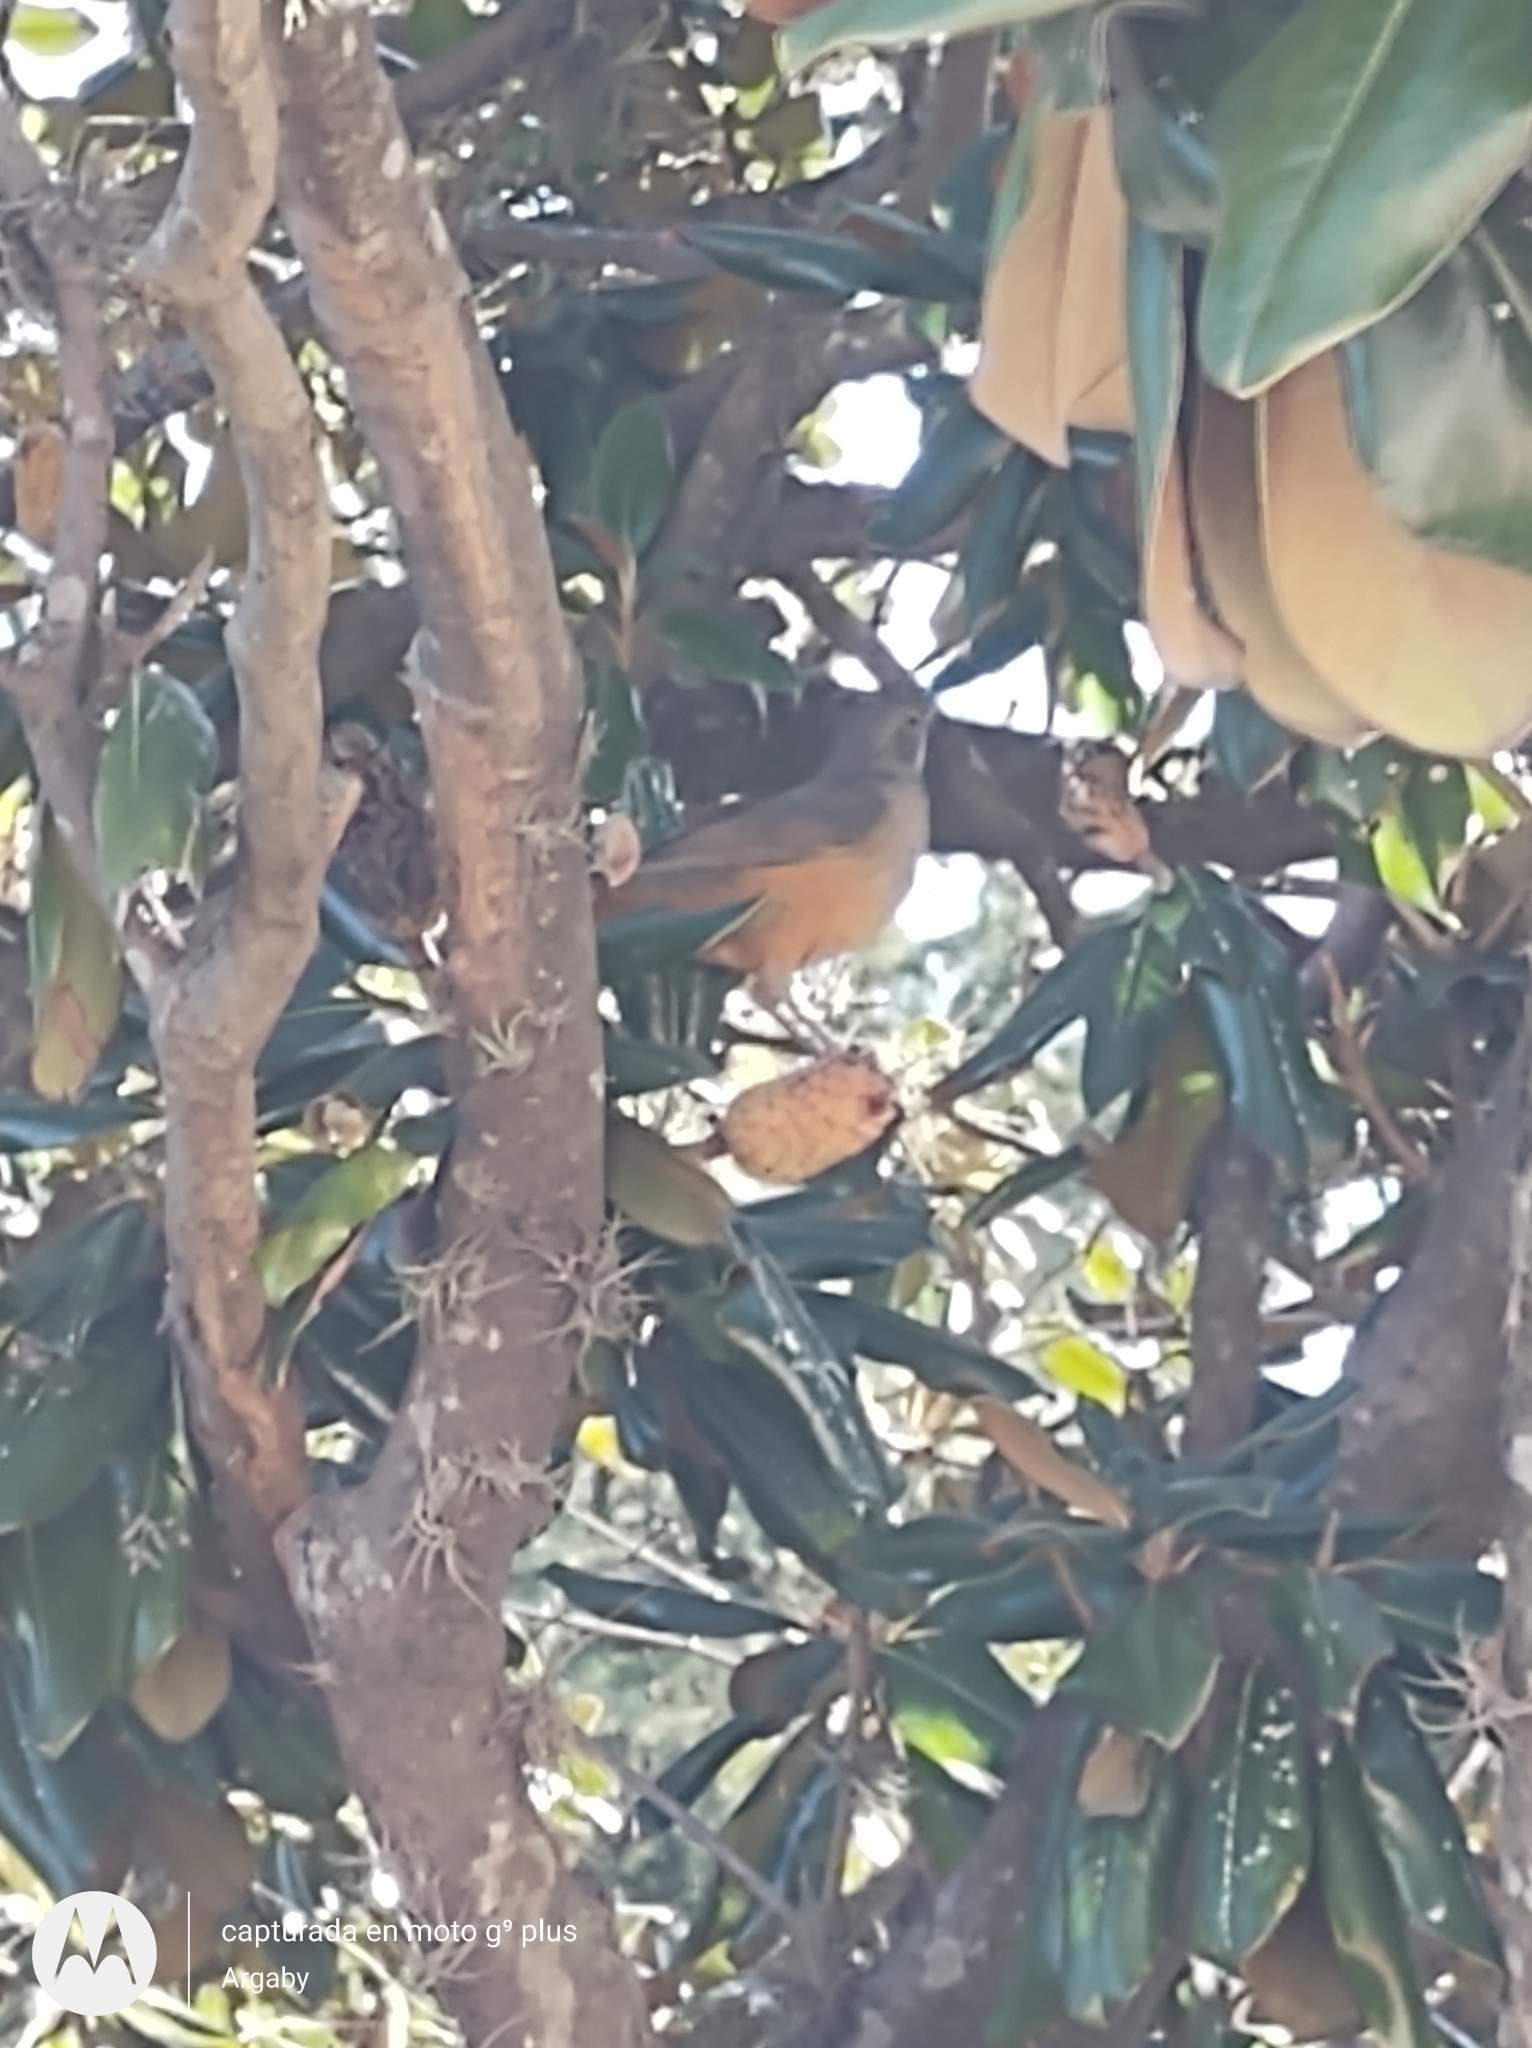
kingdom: Animalia
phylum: Chordata
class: Aves
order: Passeriformes
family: Turdidae
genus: Turdus
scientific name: Turdus rufiventris
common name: Rufous-bellied thrush
